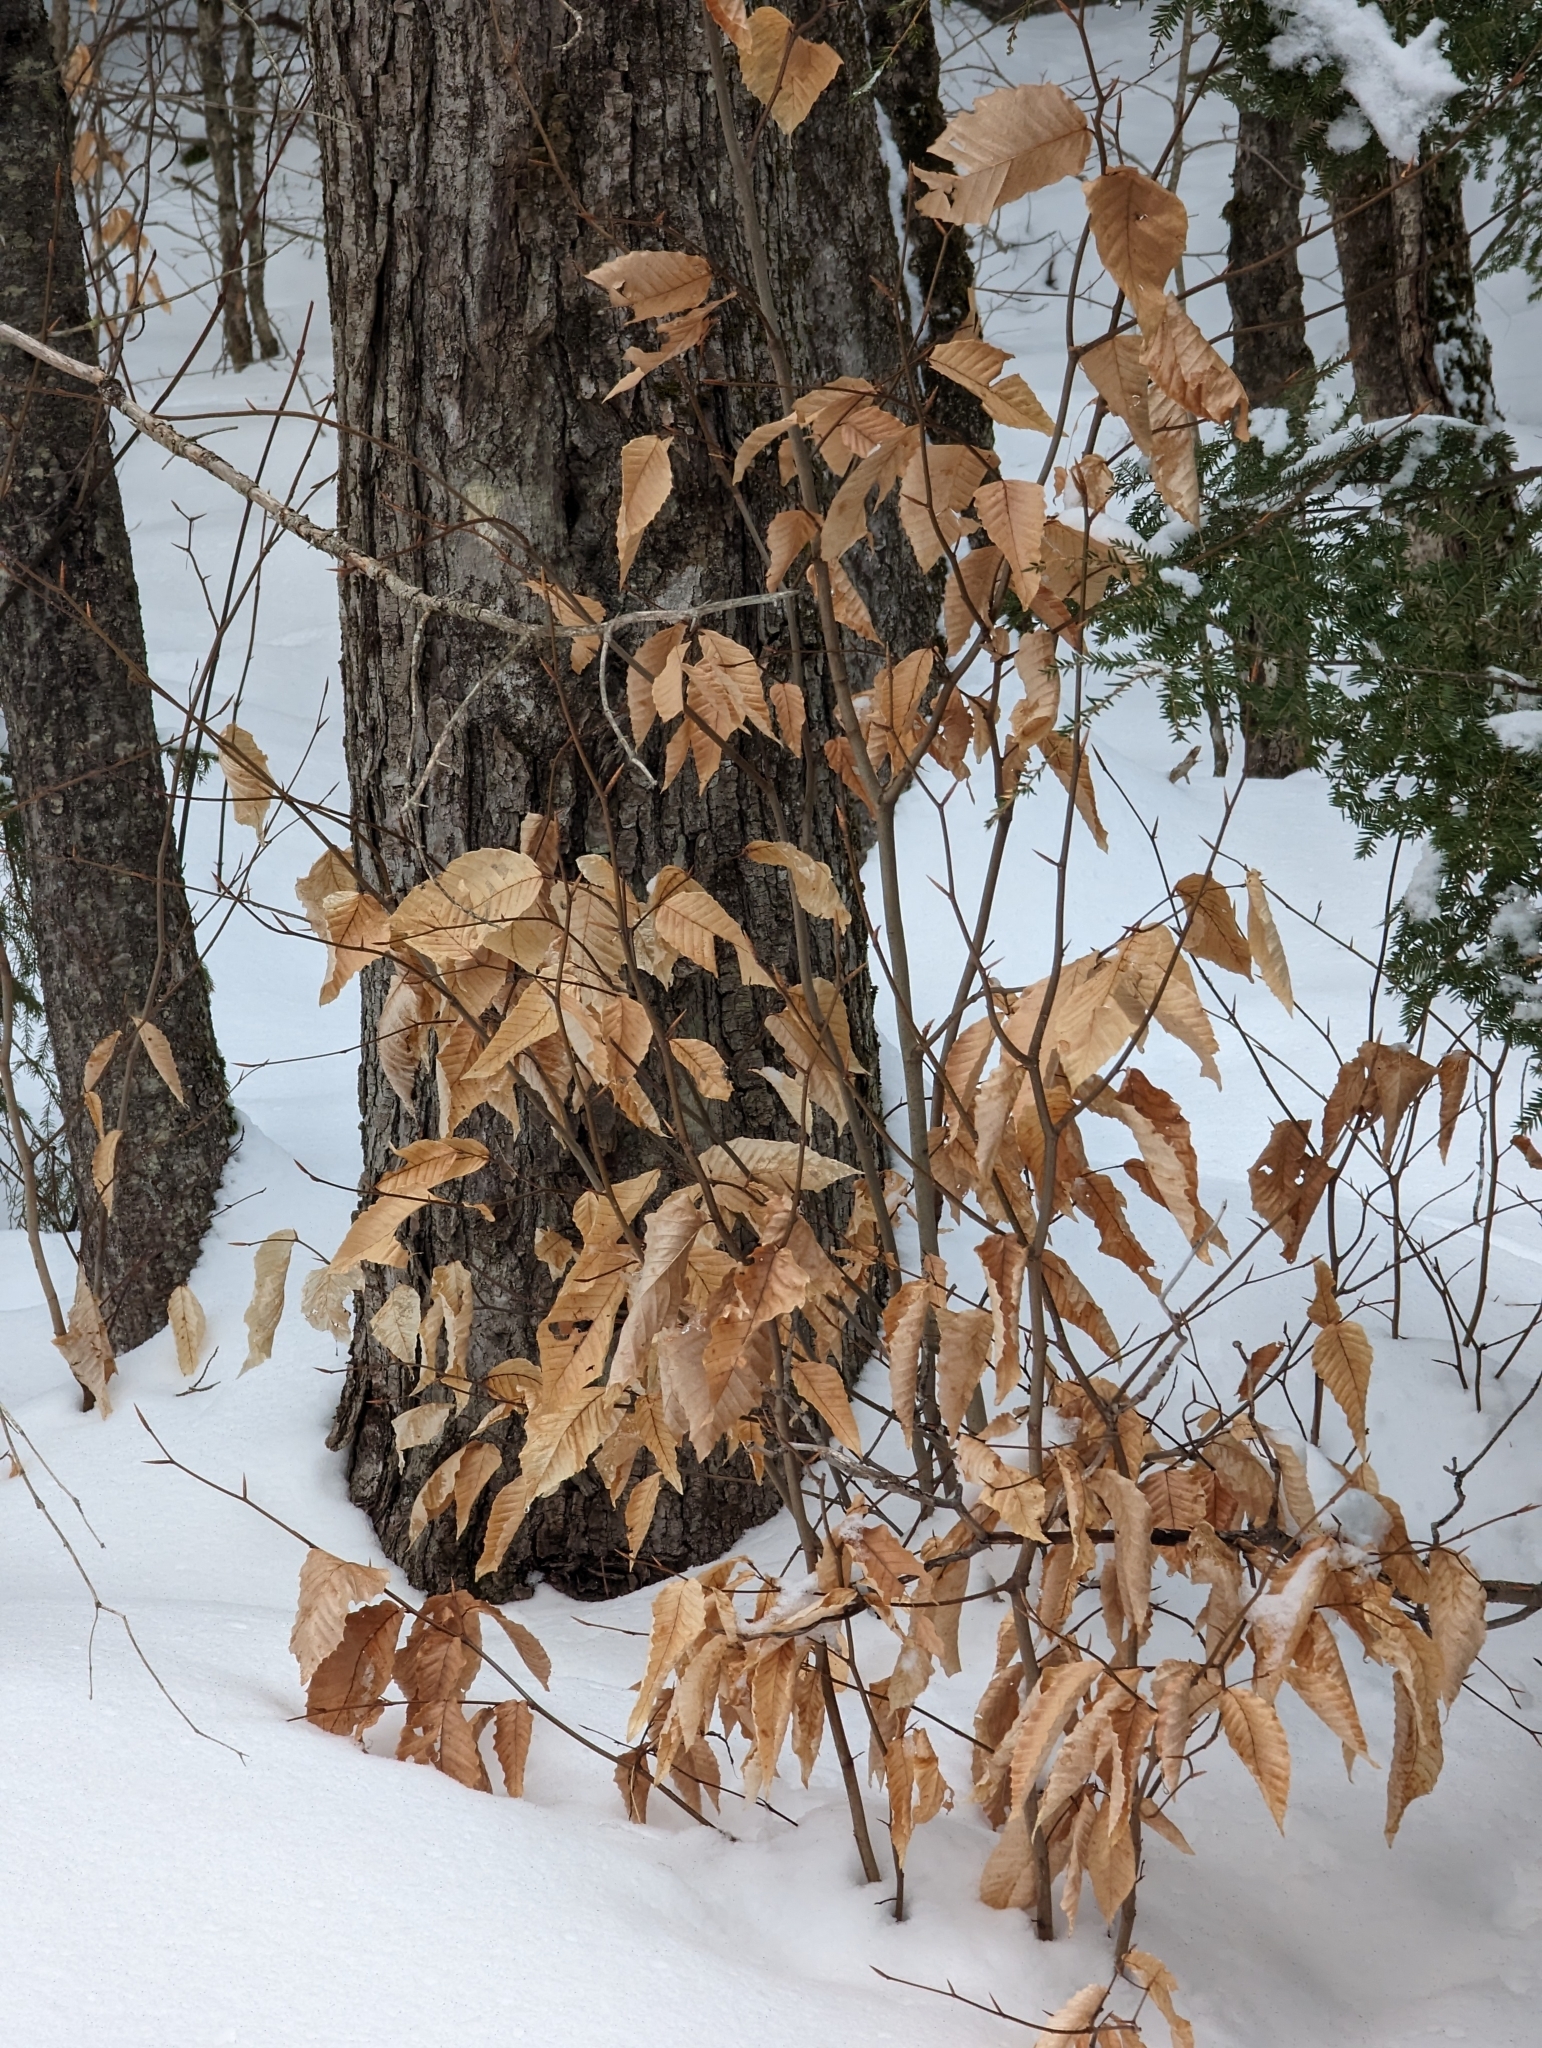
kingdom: Plantae
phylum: Tracheophyta
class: Magnoliopsida
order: Fagales
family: Fagaceae
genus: Fagus
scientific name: Fagus grandifolia
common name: American beech
